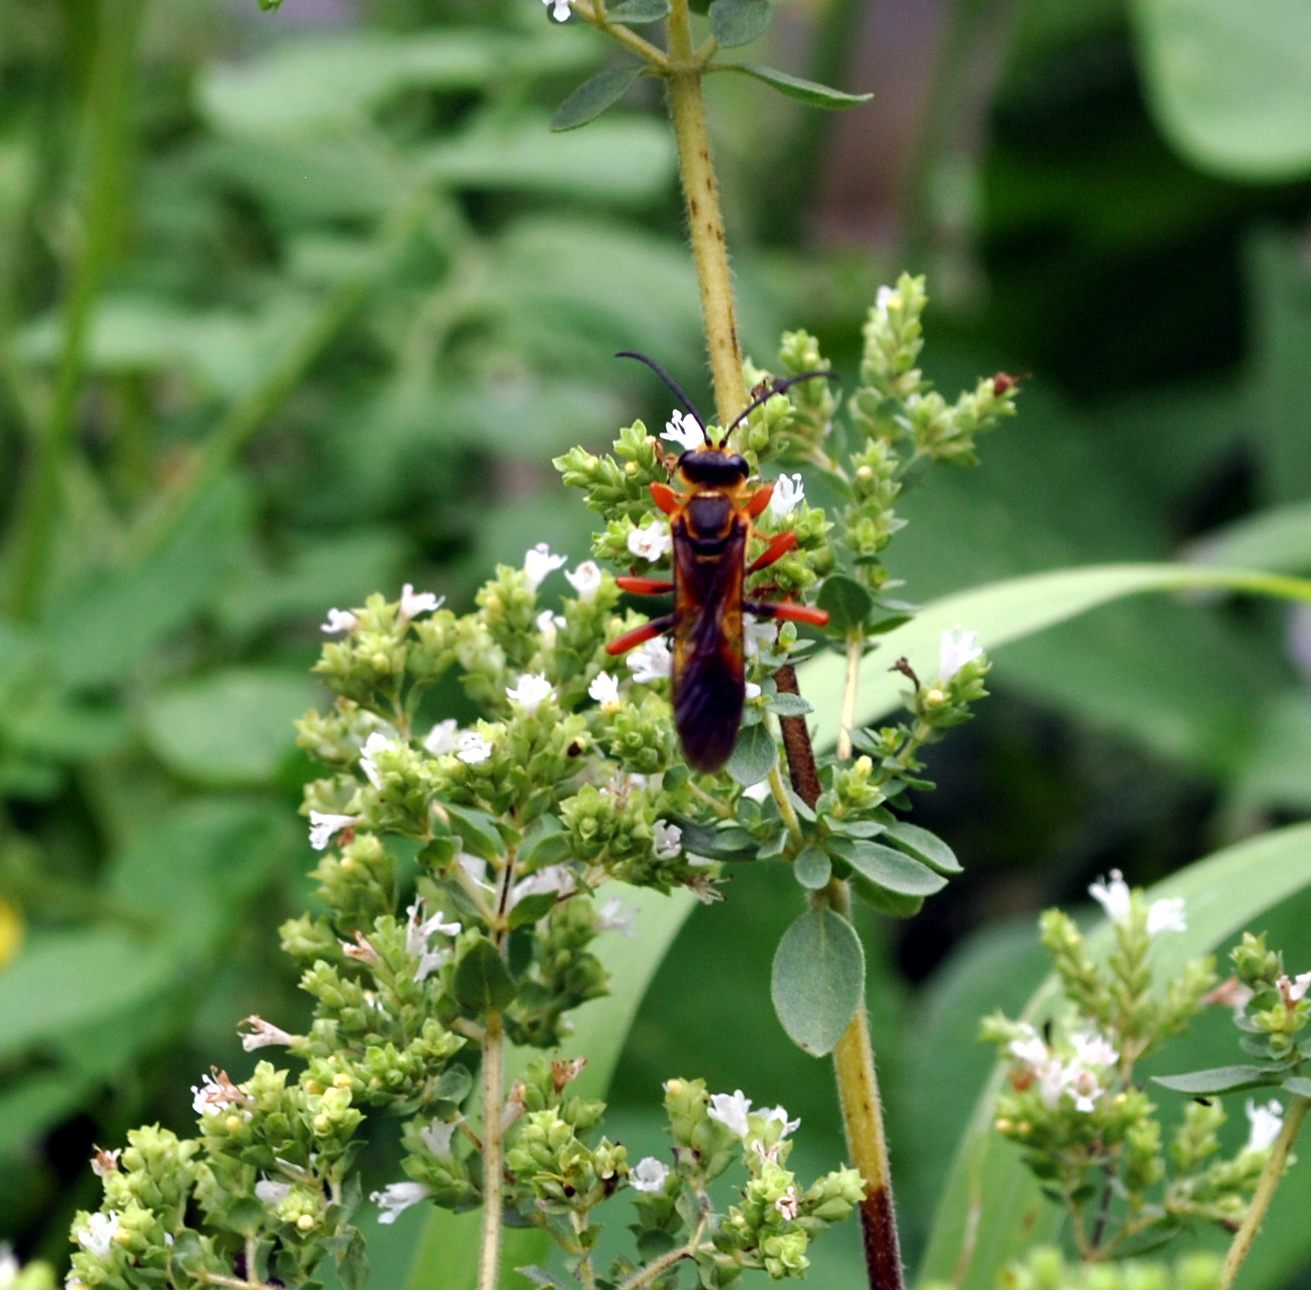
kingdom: Animalia
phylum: Arthropoda
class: Insecta
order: Hymenoptera
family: Sphecidae
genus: Sphex
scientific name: Sphex ichneumoneus
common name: Great golden digger wasp
